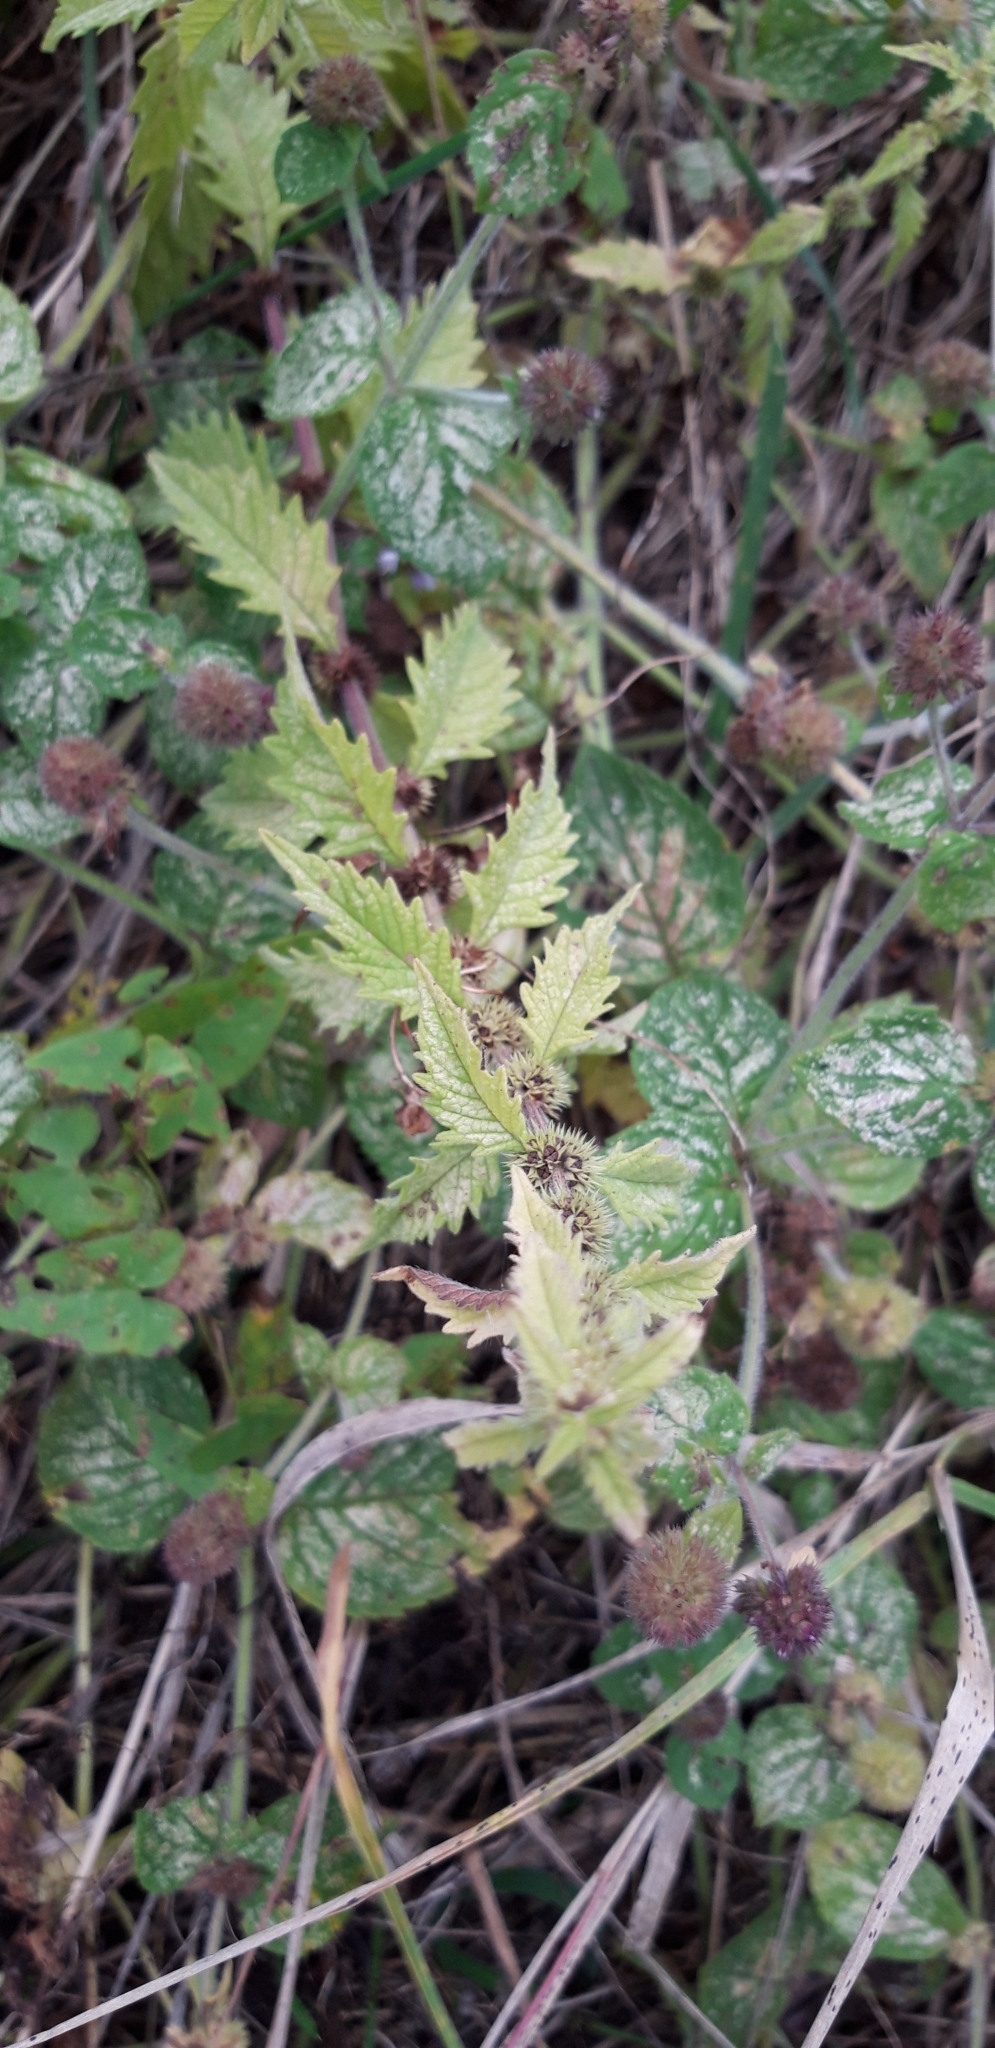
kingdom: Plantae
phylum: Tracheophyta
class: Magnoliopsida
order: Lamiales
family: Lamiaceae
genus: Lycopus
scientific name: Lycopus europaeus
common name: European bugleweed
